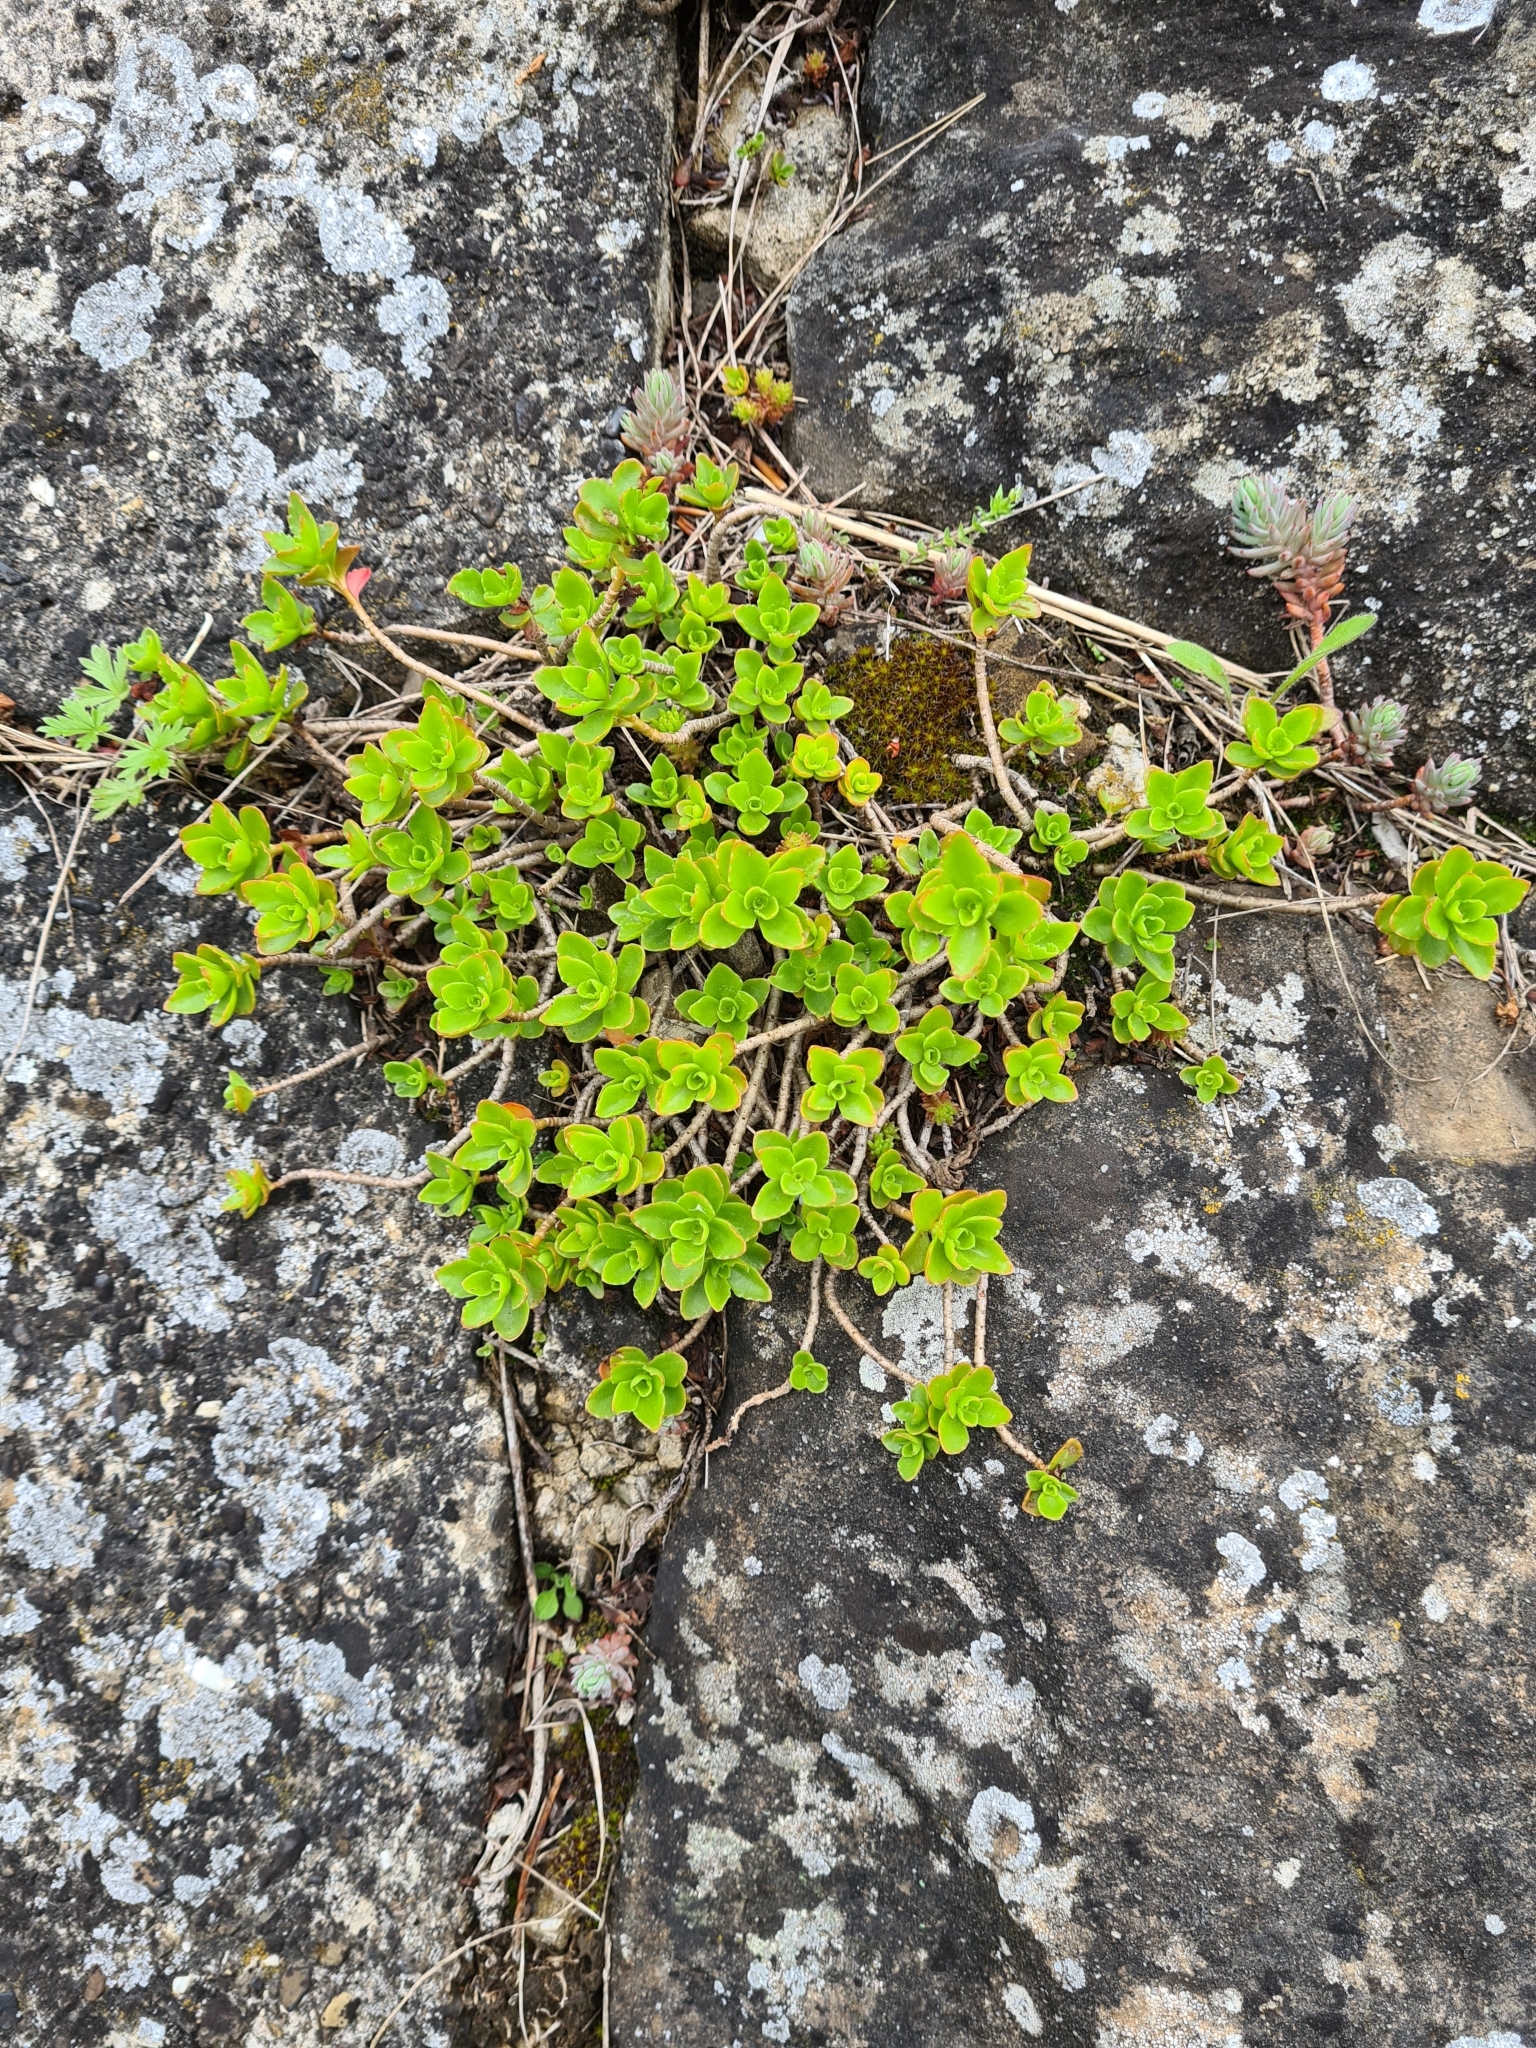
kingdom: Plantae
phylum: Tracheophyta
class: Magnoliopsida
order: Saxifragales
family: Crassulaceae
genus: Phedimus
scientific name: Phedimus spurius
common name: Caucasian stonecrop
